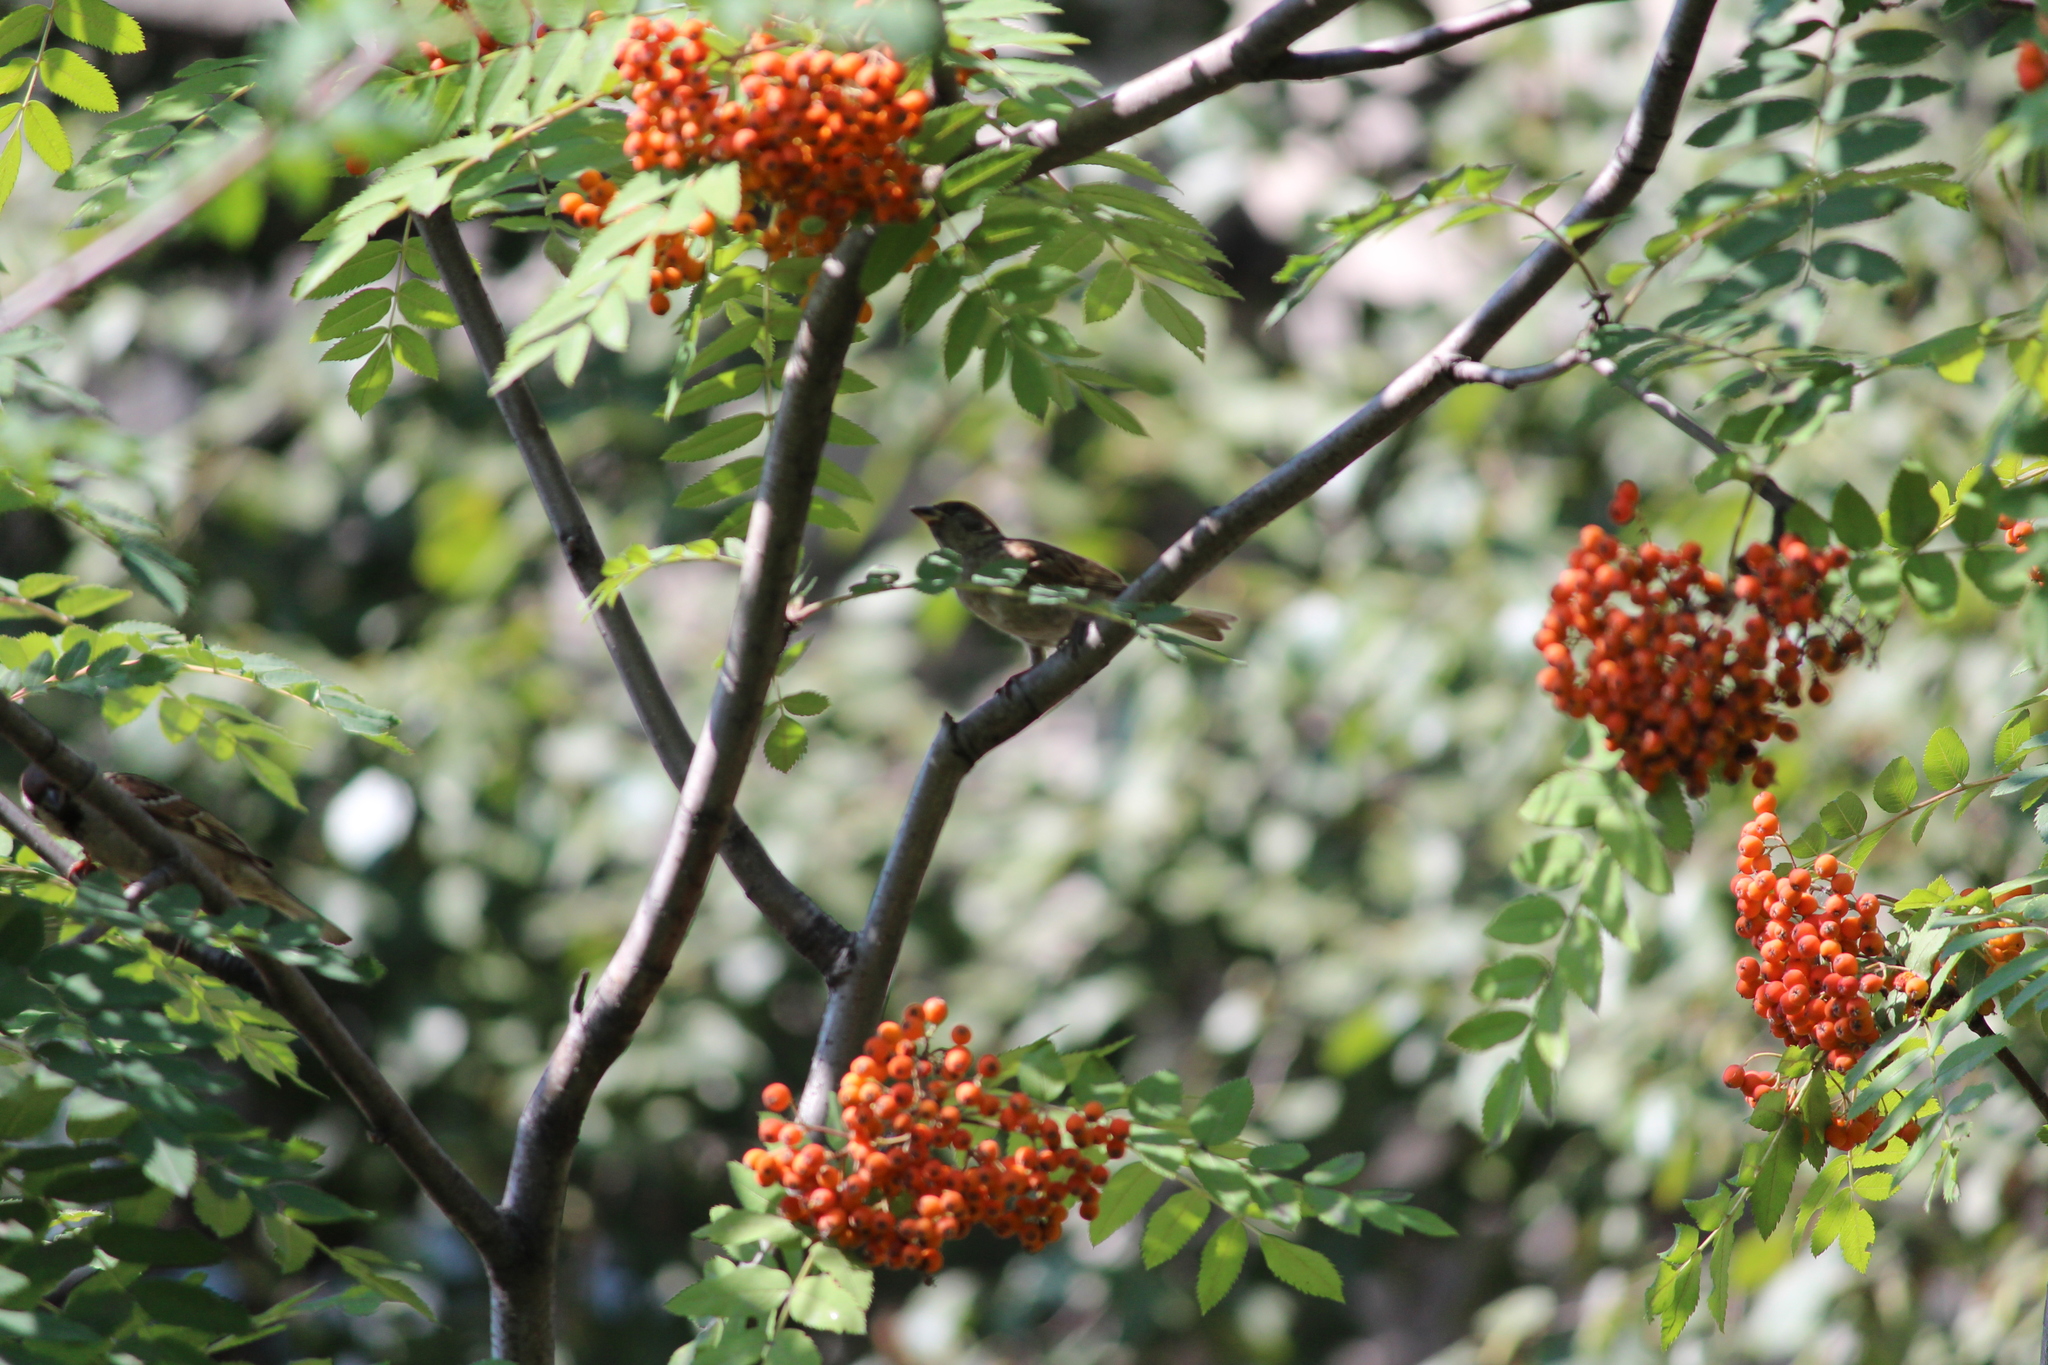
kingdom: Animalia
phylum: Chordata
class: Aves
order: Passeriformes
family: Passeridae
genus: Passer
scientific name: Passer montanus
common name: Eurasian tree sparrow
